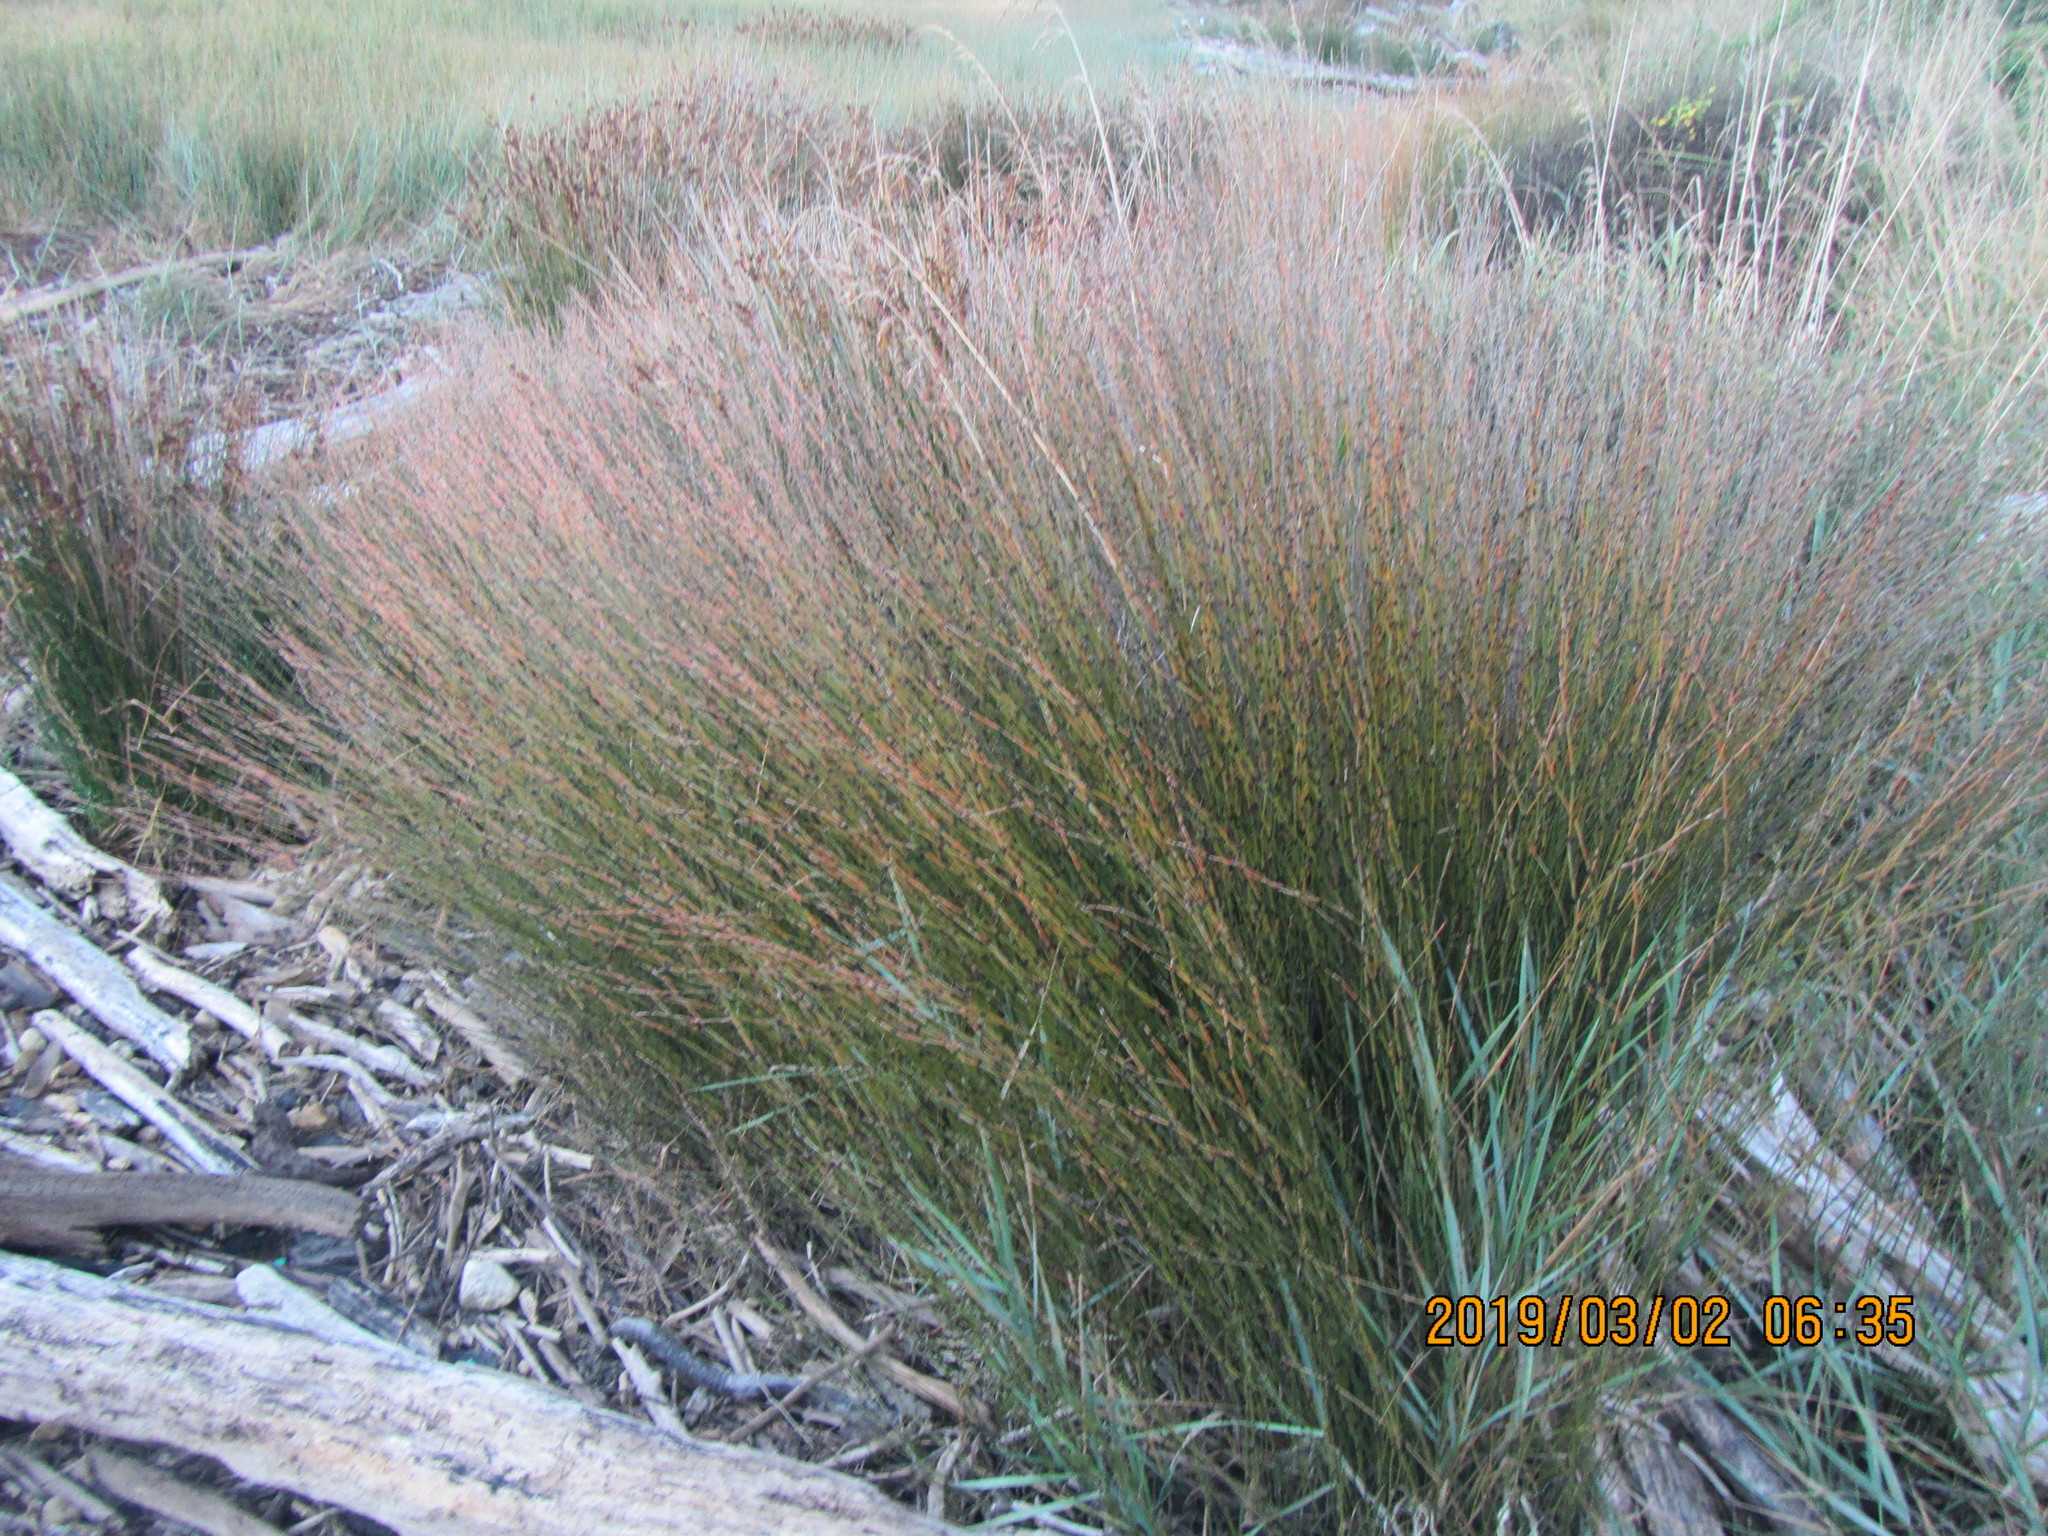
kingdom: Plantae
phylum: Tracheophyta
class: Liliopsida
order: Poales
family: Restionaceae
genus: Apodasmia
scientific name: Apodasmia similis
